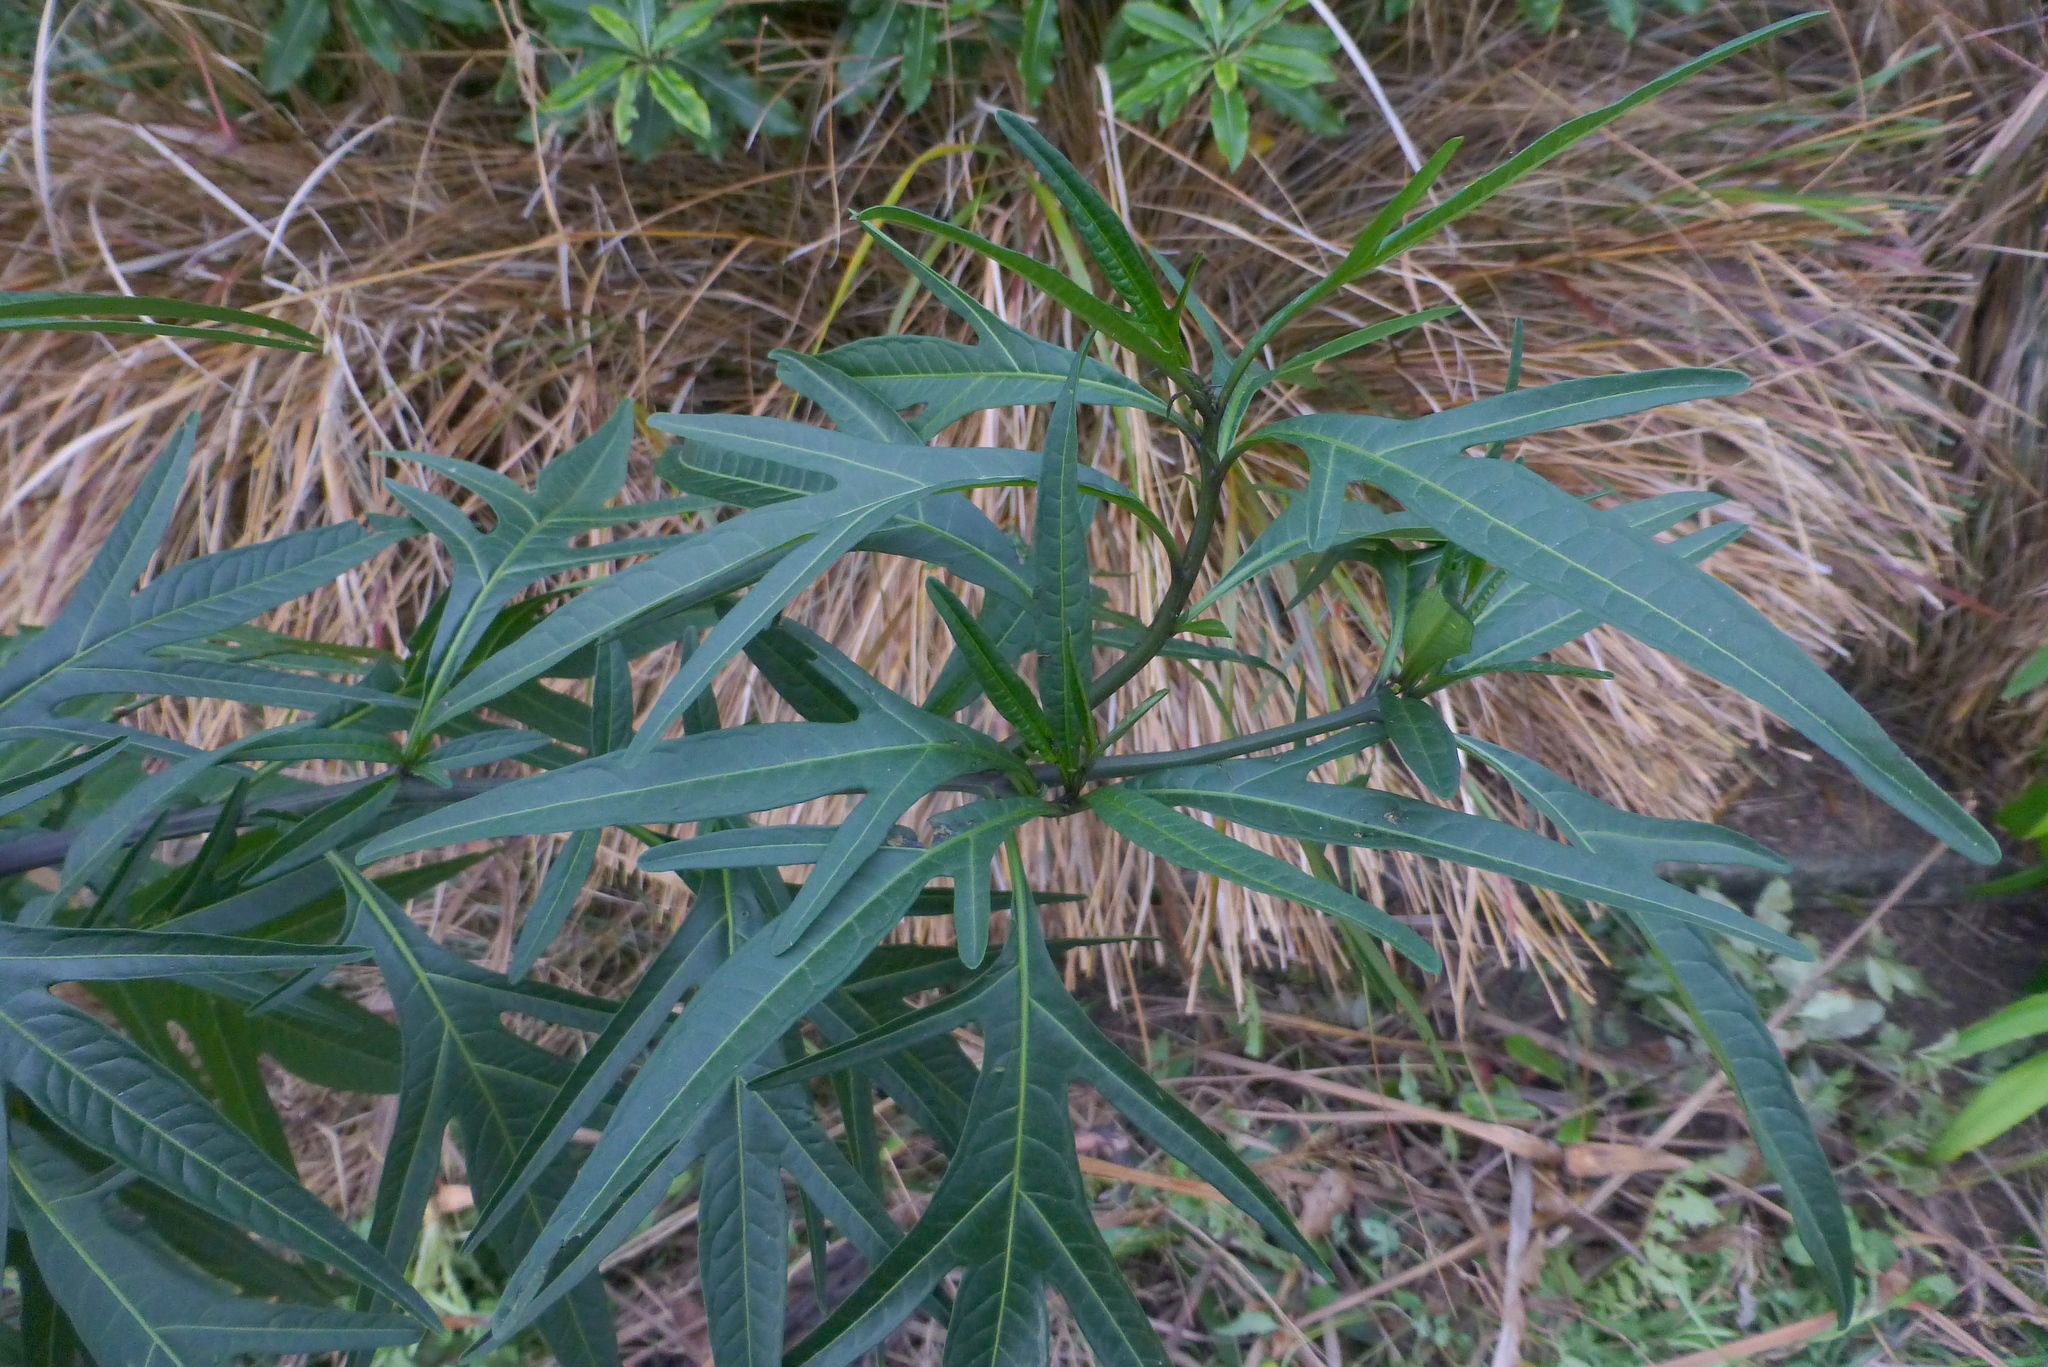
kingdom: Plantae
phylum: Tracheophyta
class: Magnoliopsida
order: Solanales
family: Solanaceae
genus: Solanum
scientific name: Solanum laciniatum
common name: Kangaroo-apple
